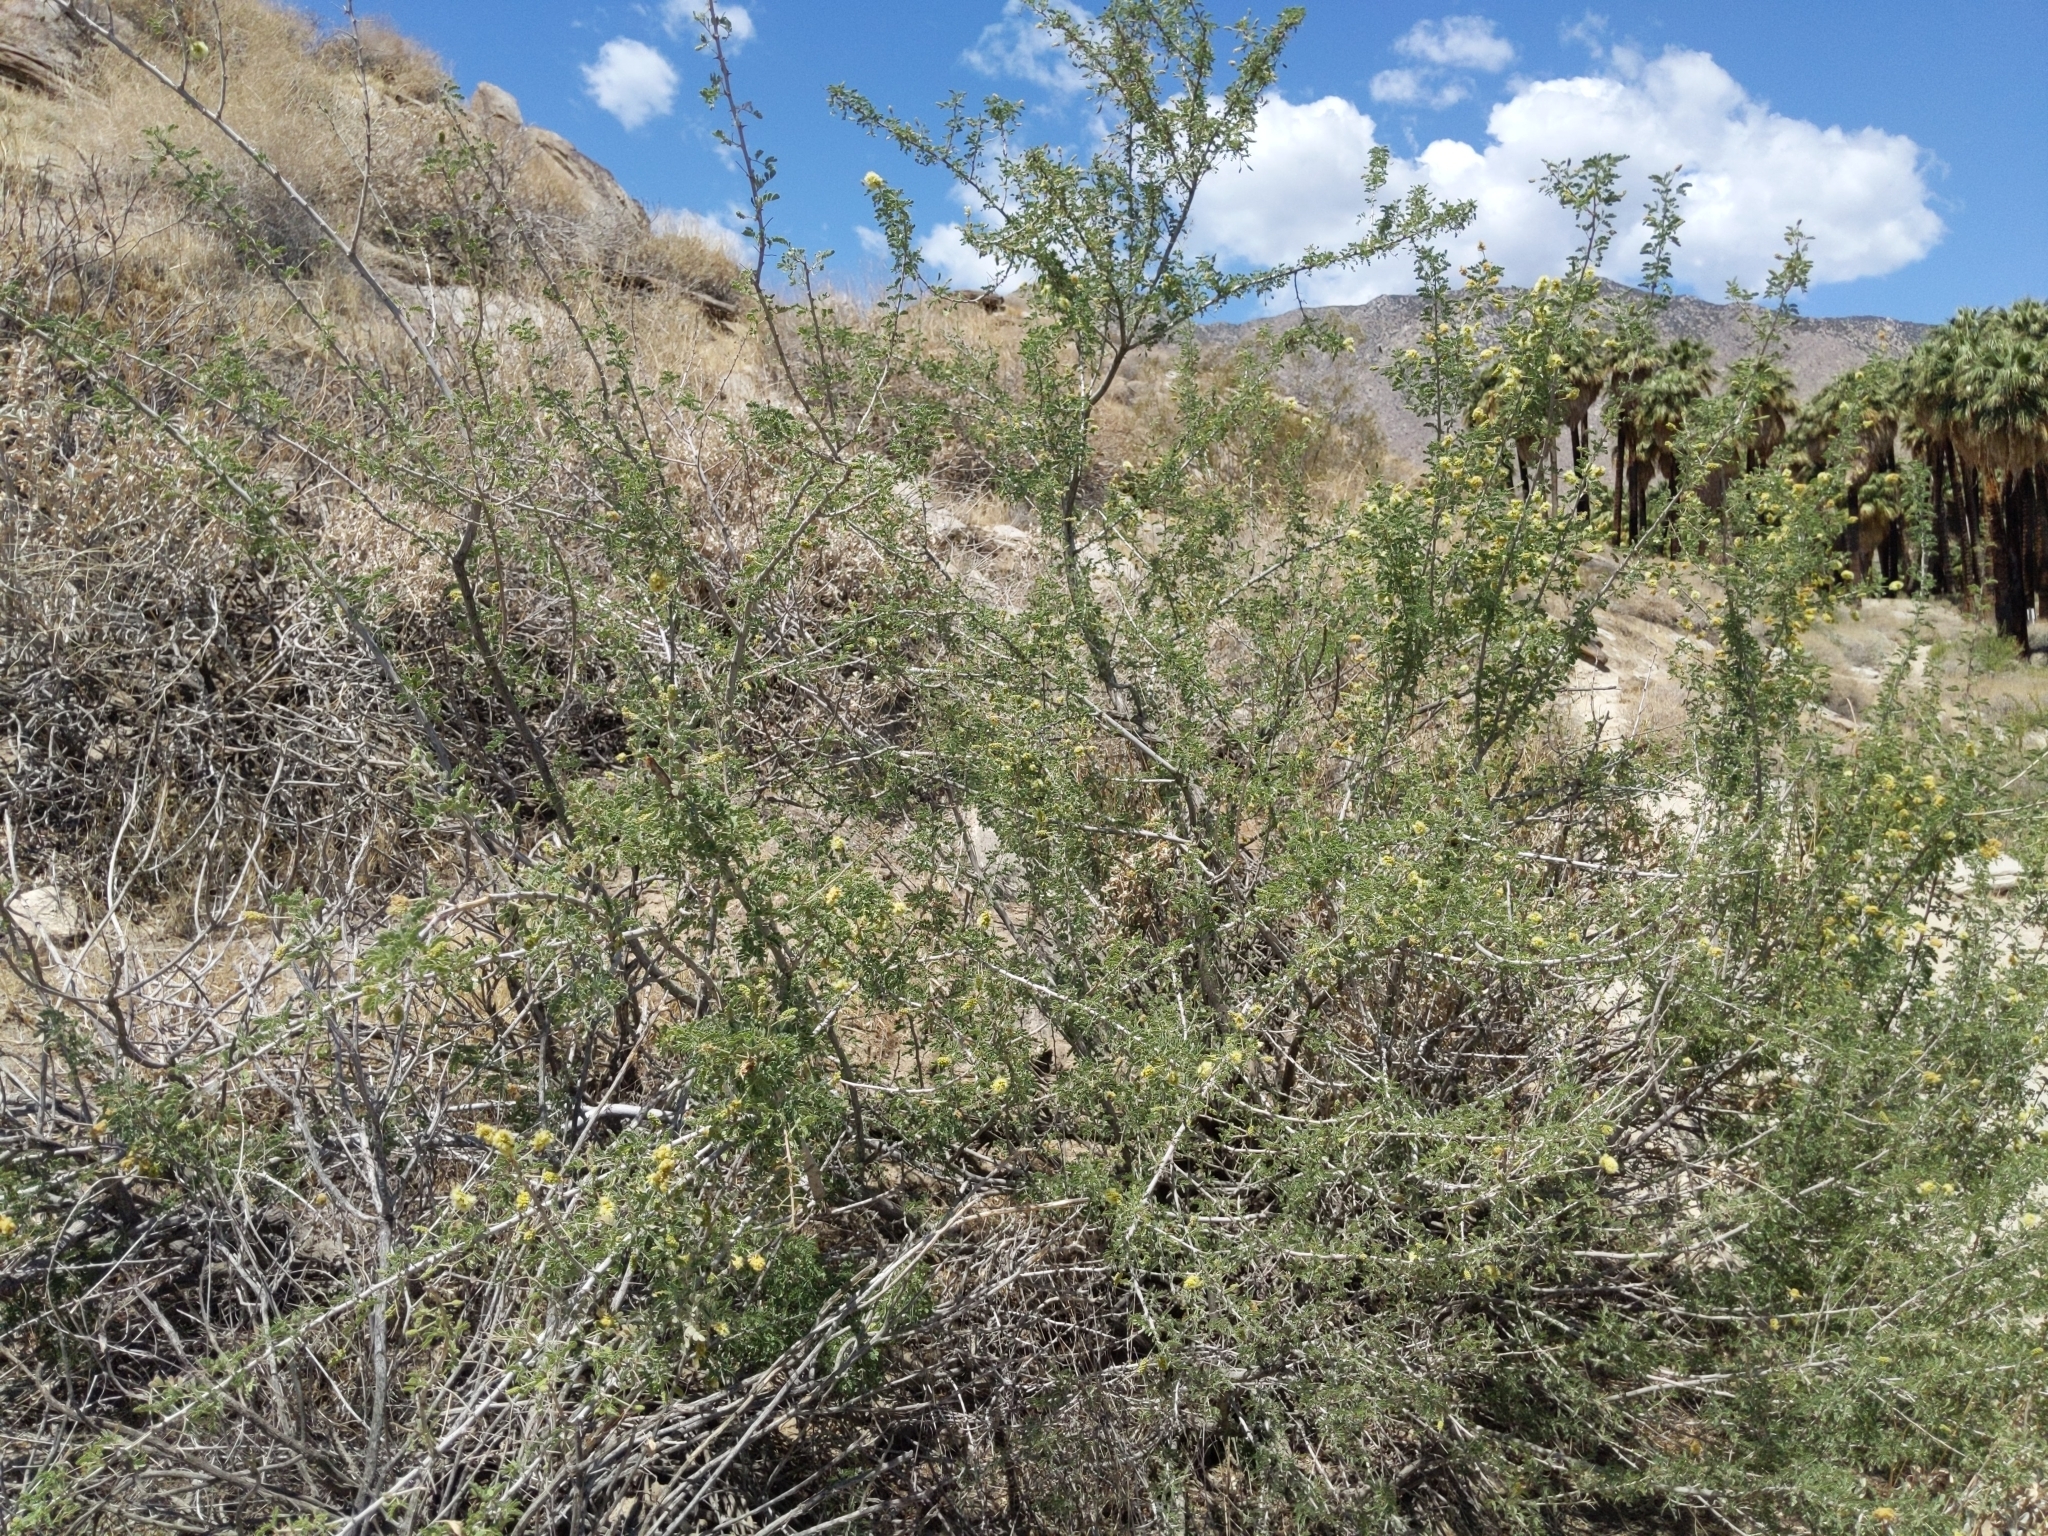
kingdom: Plantae
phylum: Tracheophyta
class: Magnoliopsida
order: Fabales
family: Fabaceae
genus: Senegalia
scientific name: Senegalia greggii
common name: Texas-mimosa
